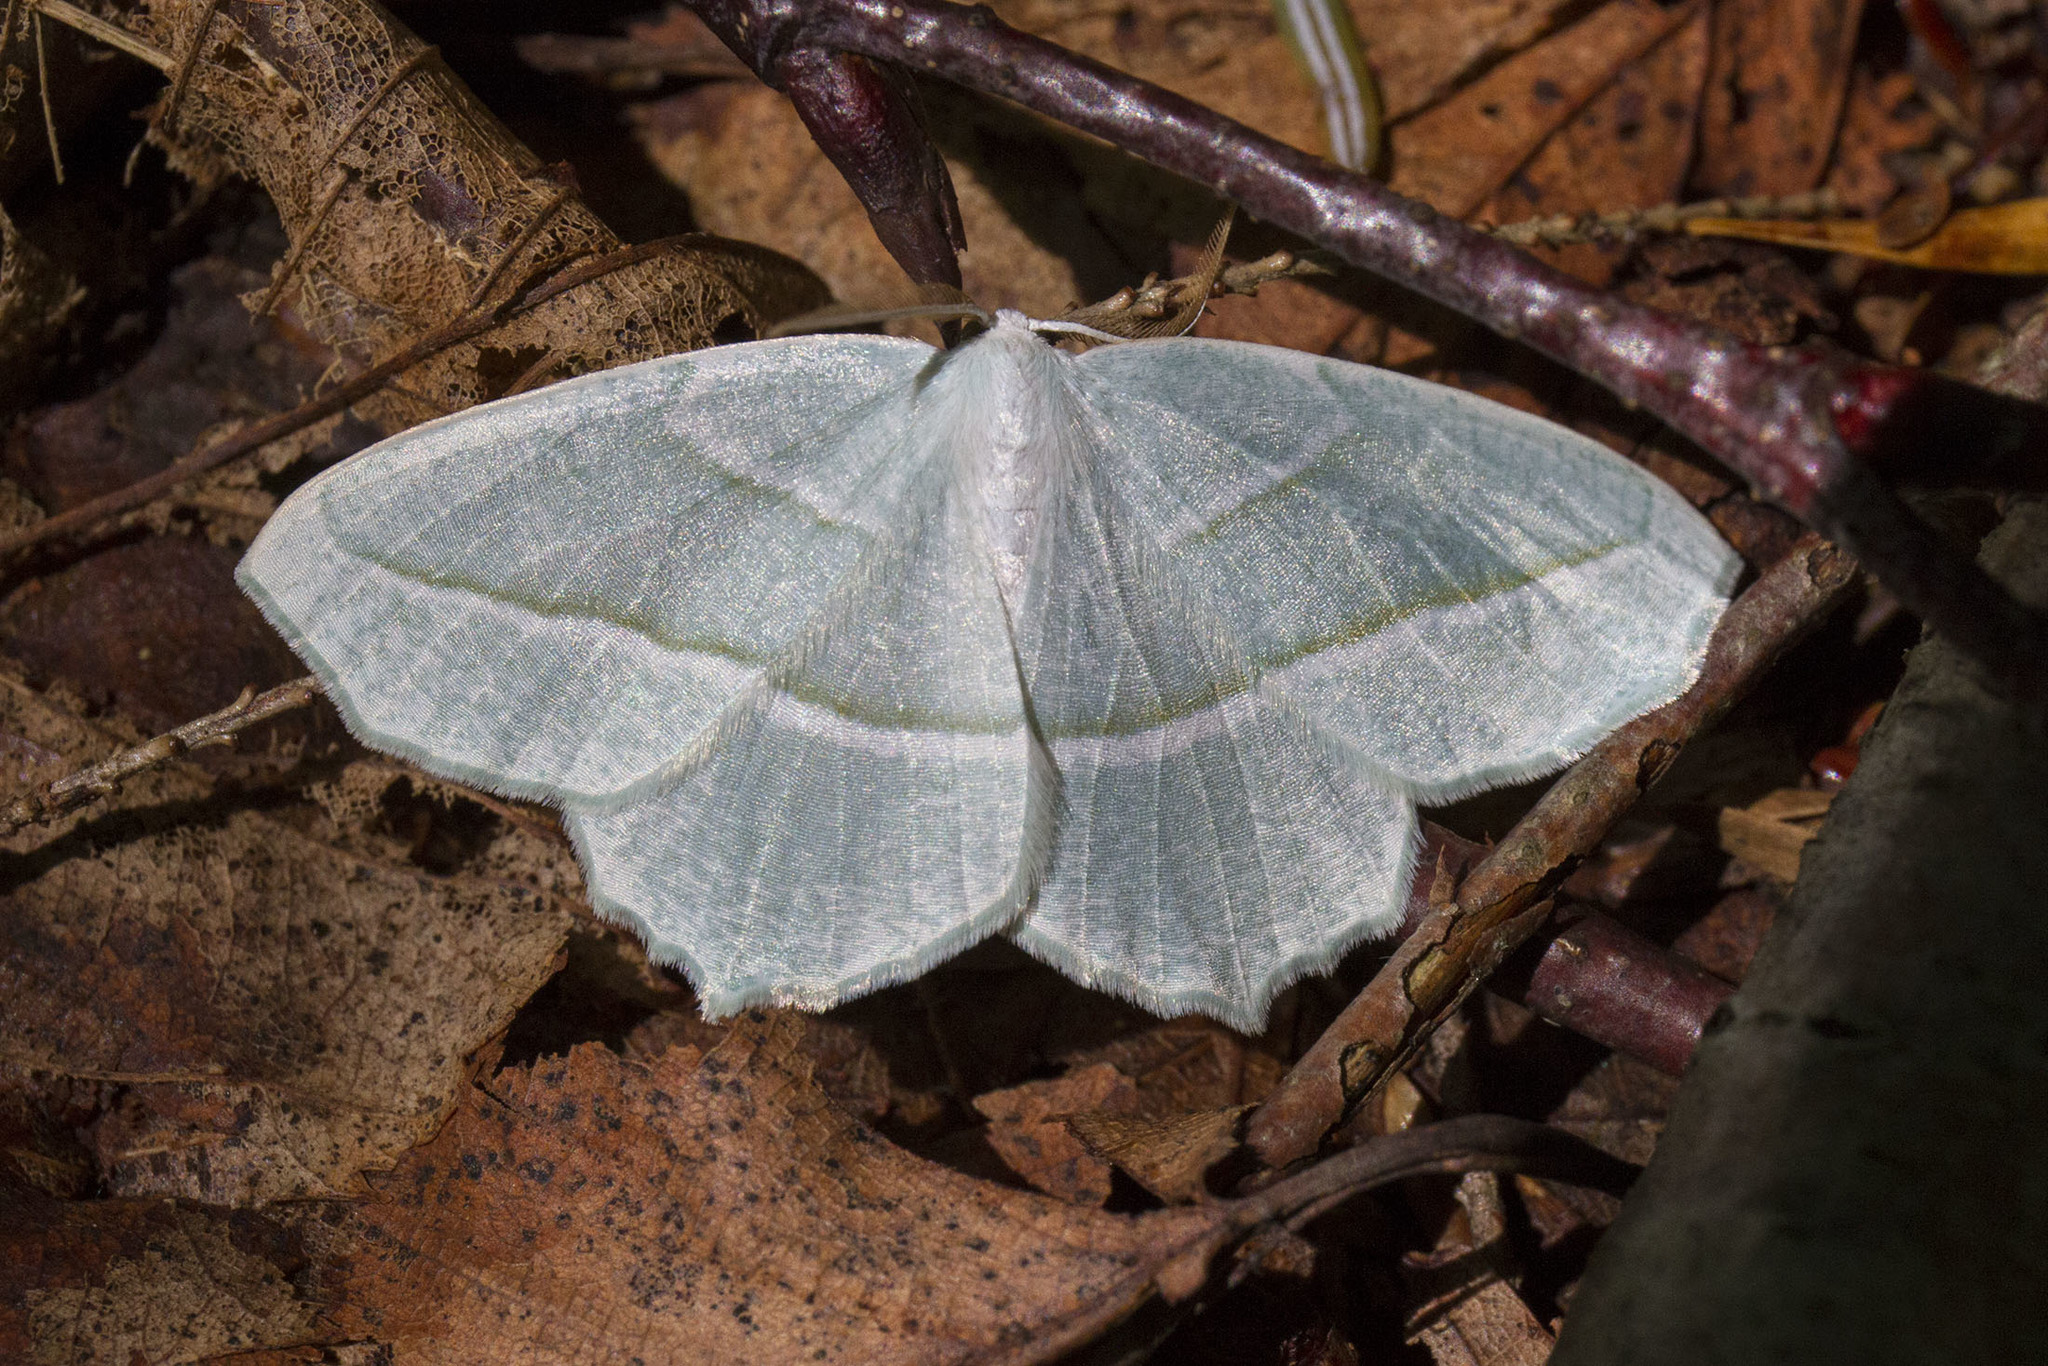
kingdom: Animalia
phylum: Arthropoda
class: Insecta
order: Lepidoptera
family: Geometridae
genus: Campaea
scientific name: Campaea perlata
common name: Fringed looper
